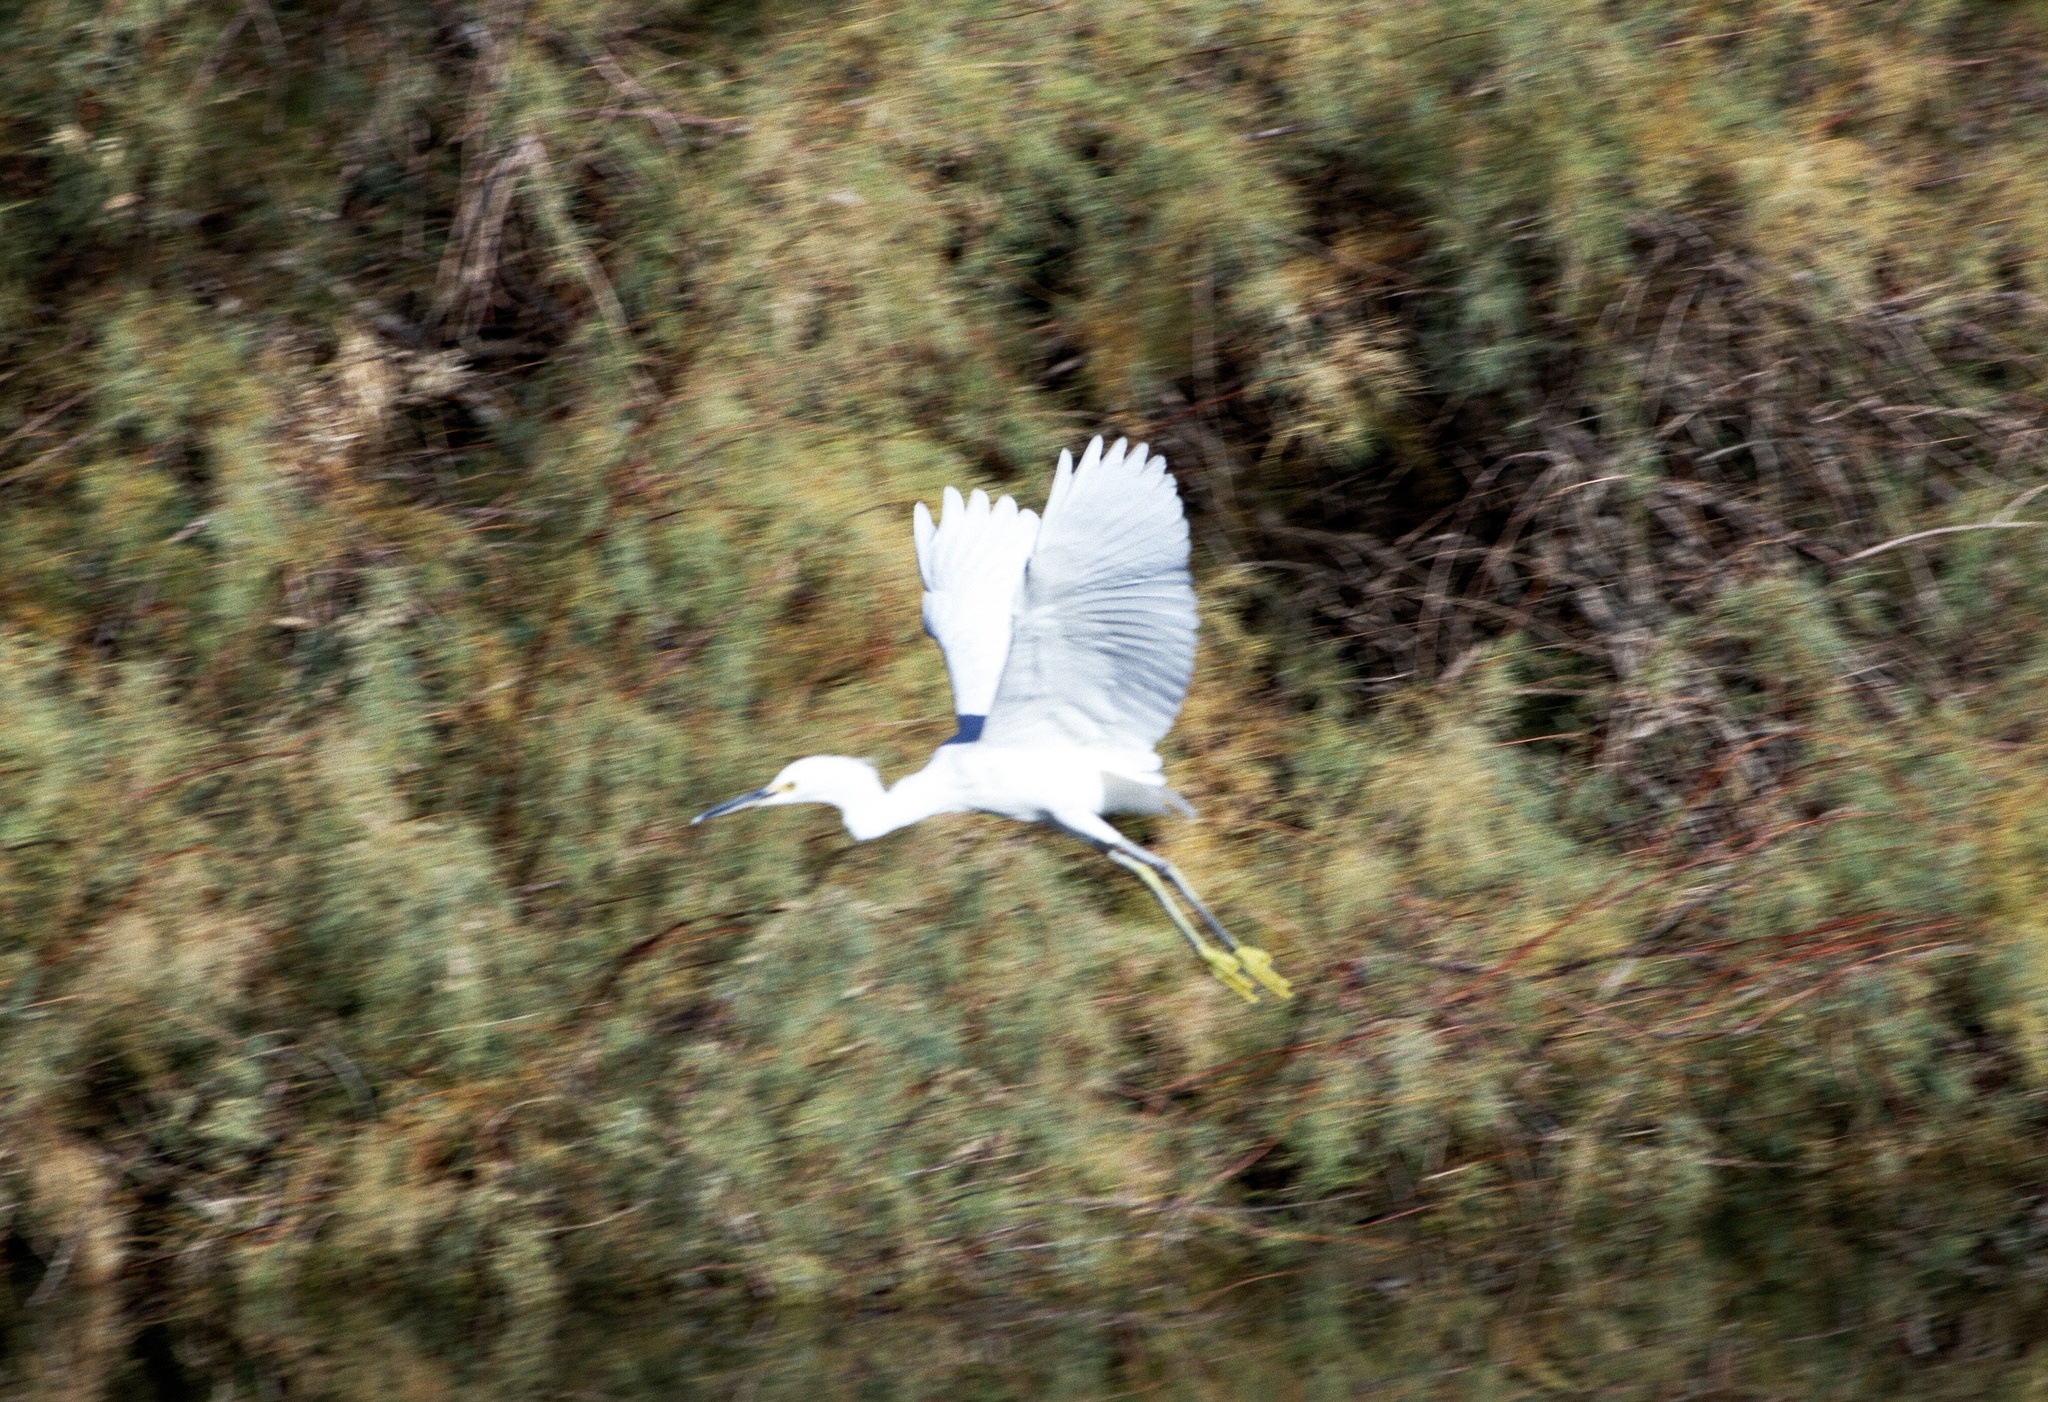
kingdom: Animalia
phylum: Chordata
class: Aves
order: Pelecaniformes
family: Ardeidae
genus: Egretta
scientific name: Egretta thula
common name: Snowy egret
